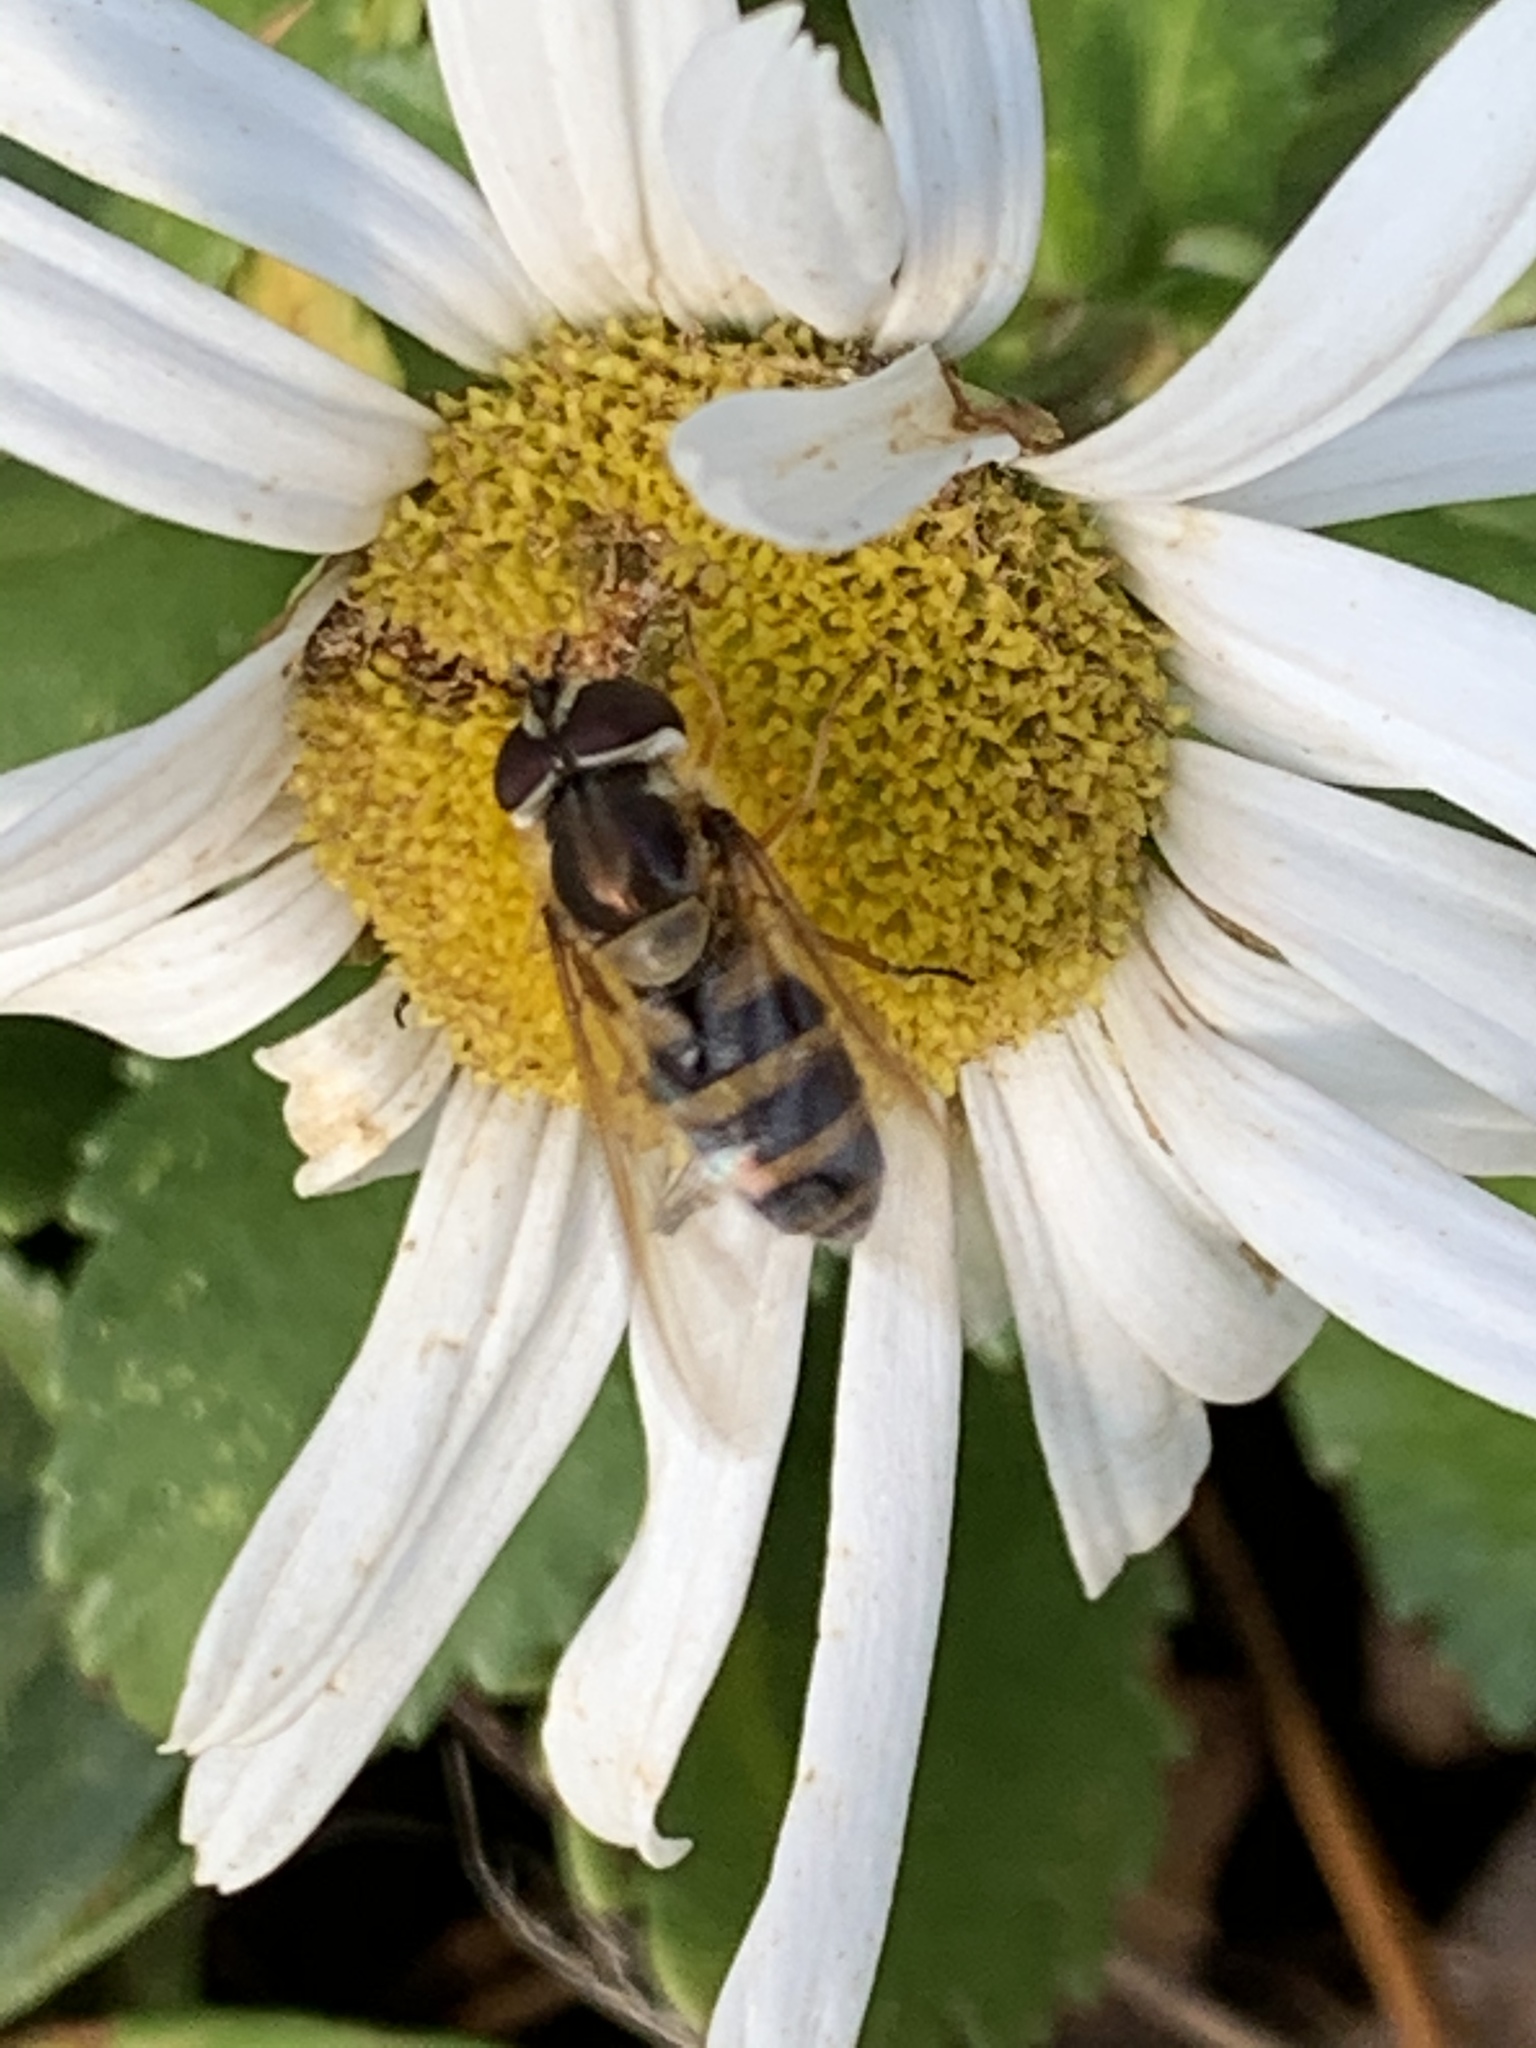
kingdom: Animalia
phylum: Arthropoda
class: Insecta
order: Diptera
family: Syrphidae
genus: Epistrophe
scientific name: Epistrophe grossulariae
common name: Black-horned smoothtail
